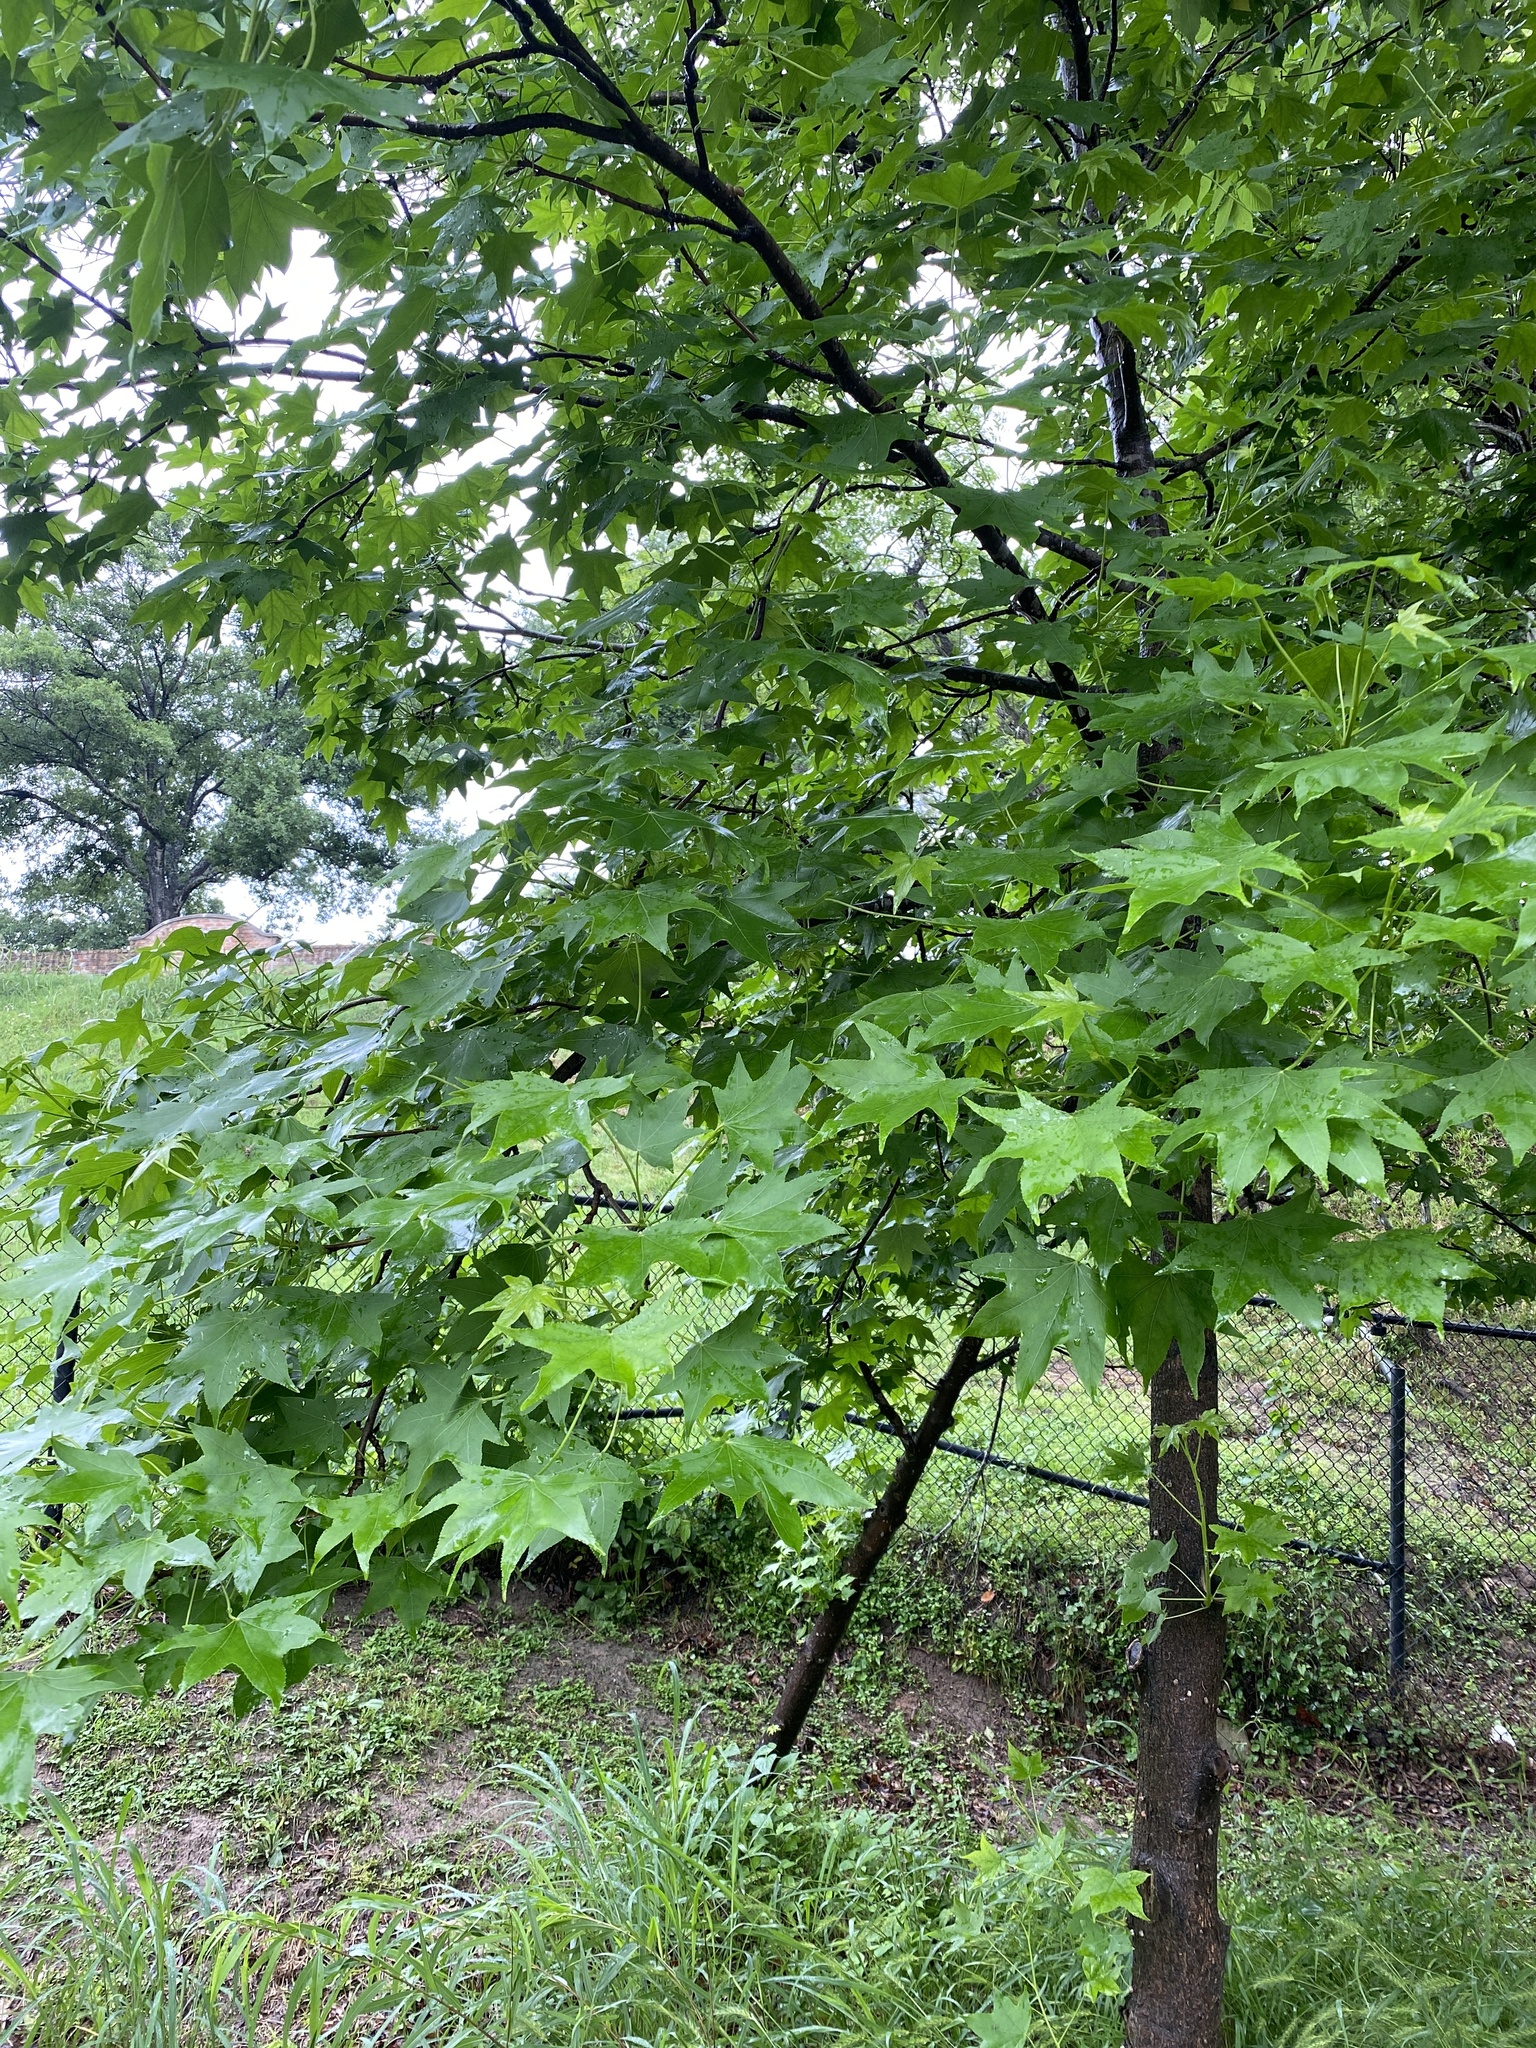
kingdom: Plantae
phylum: Tracheophyta
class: Magnoliopsida
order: Saxifragales
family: Altingiaceae
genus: Liquidambar
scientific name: Liquidambar styraciflua
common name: Sweet gum
